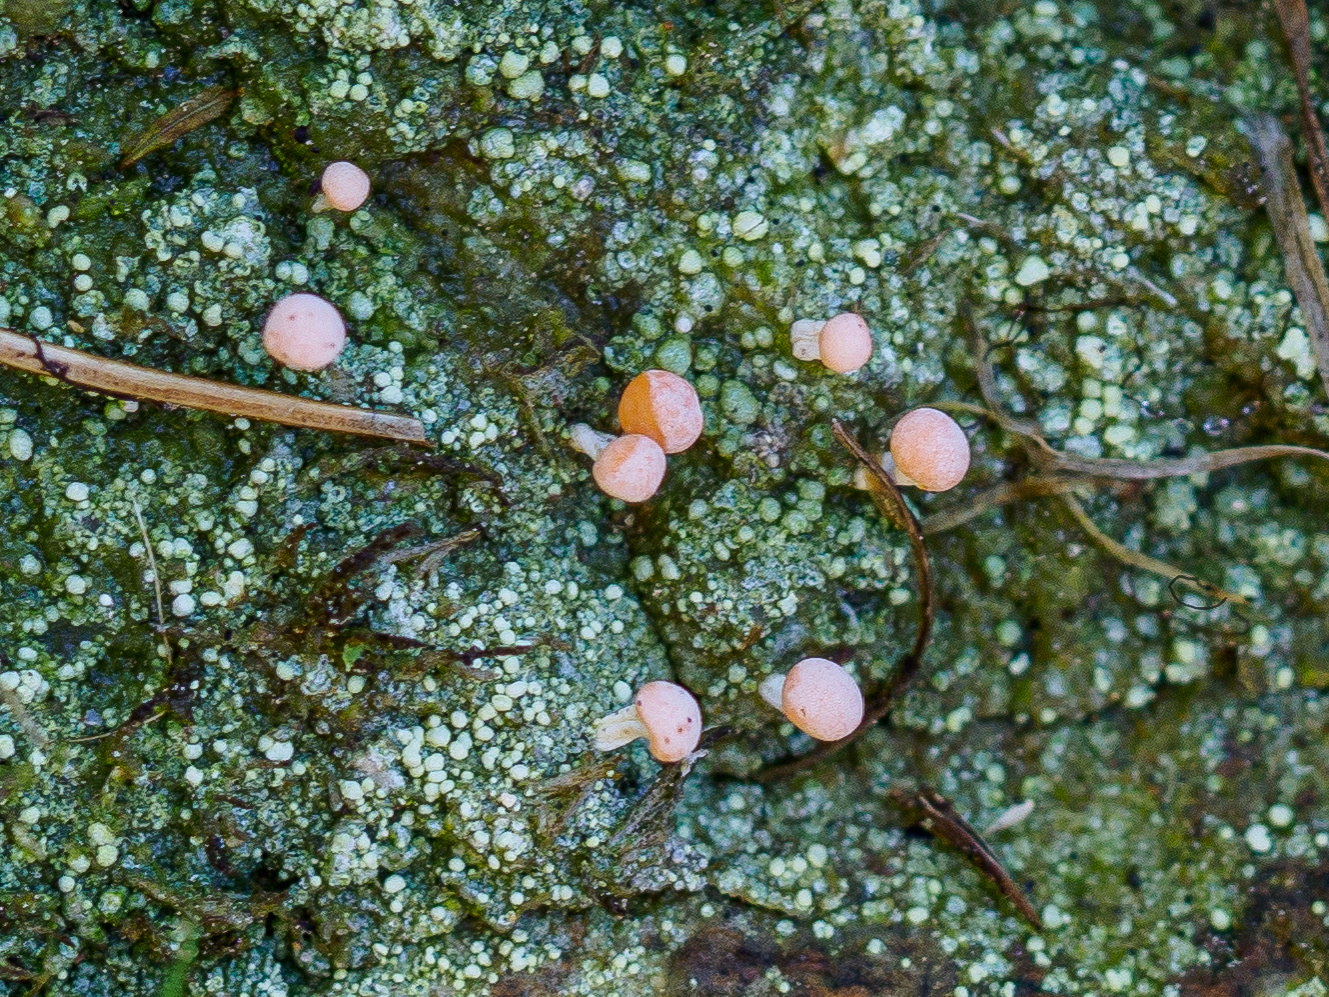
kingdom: Fungi
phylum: Ascomycota
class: Lecanoromycetes
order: Pertusariales
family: Icmadophilaceae
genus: Dibaeis
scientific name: Dibaeis baeomyces
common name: Pink earth lichen
